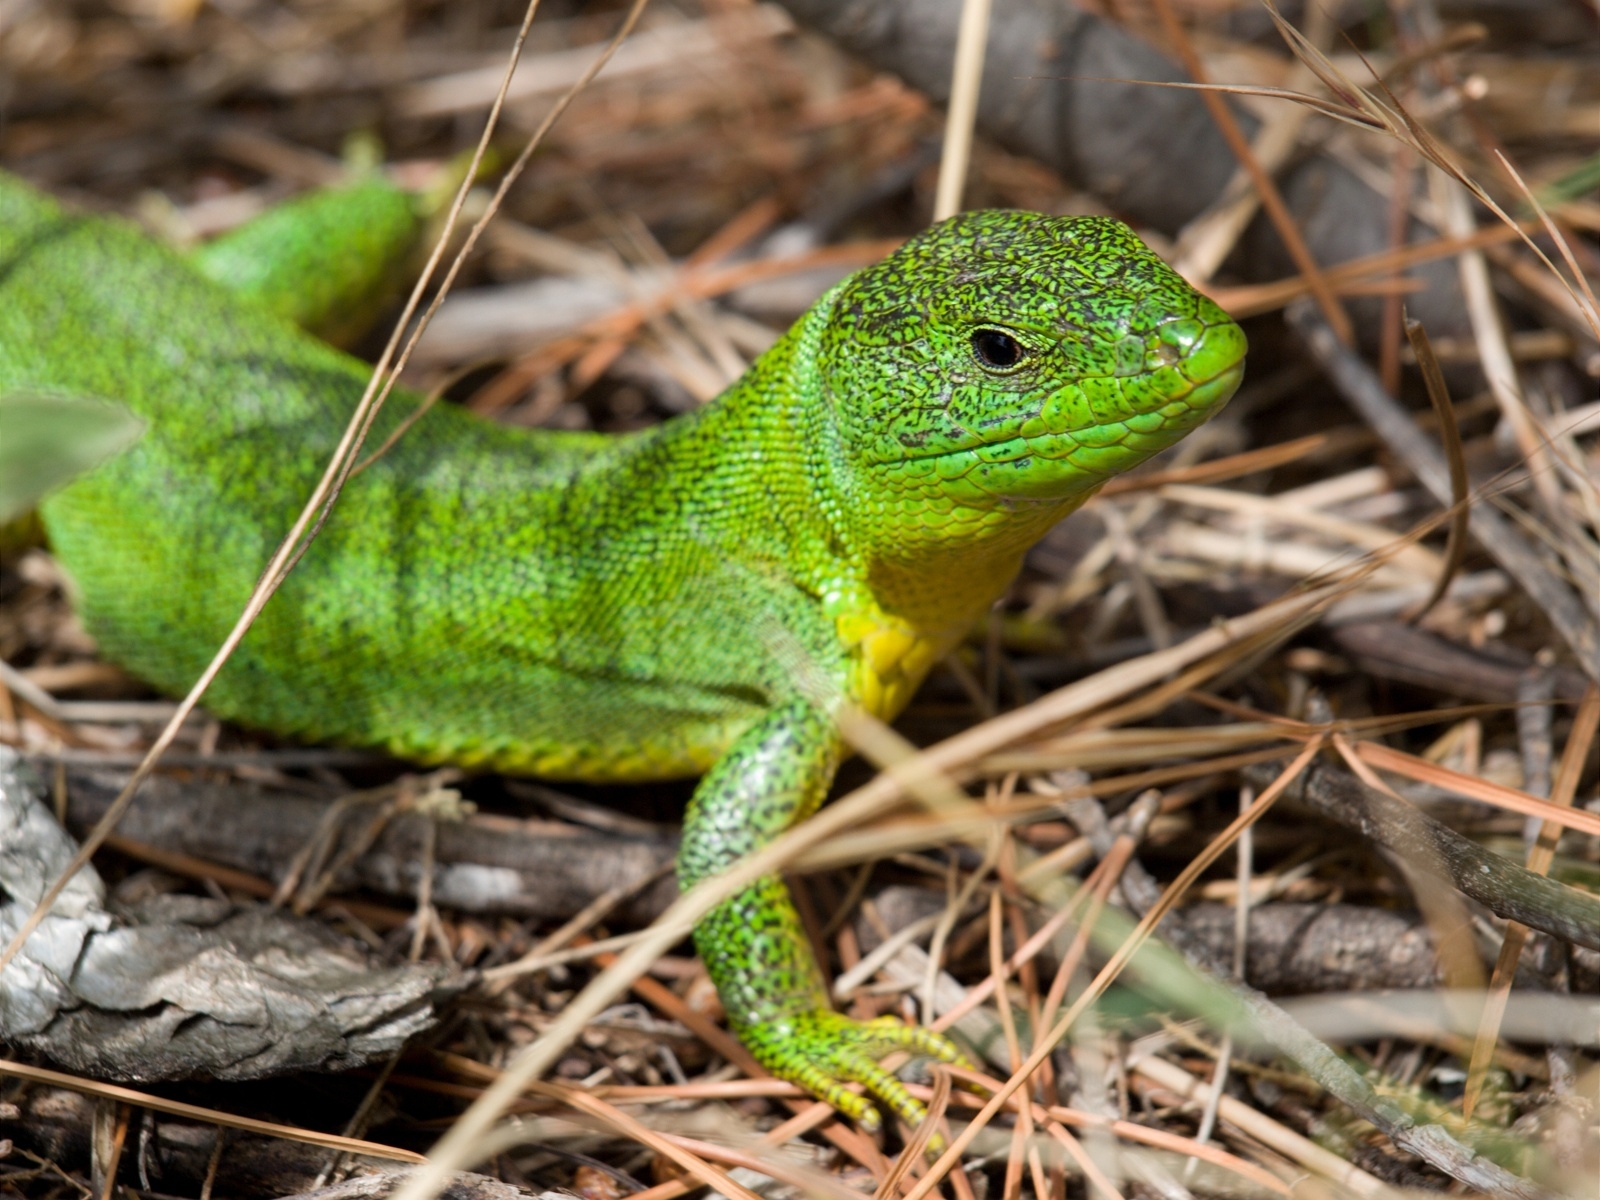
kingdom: Animalia
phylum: Chordata
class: Squamata
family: Lacertidae
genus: Lacerta
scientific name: Lacerta trilineata
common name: Balkan green lizard
